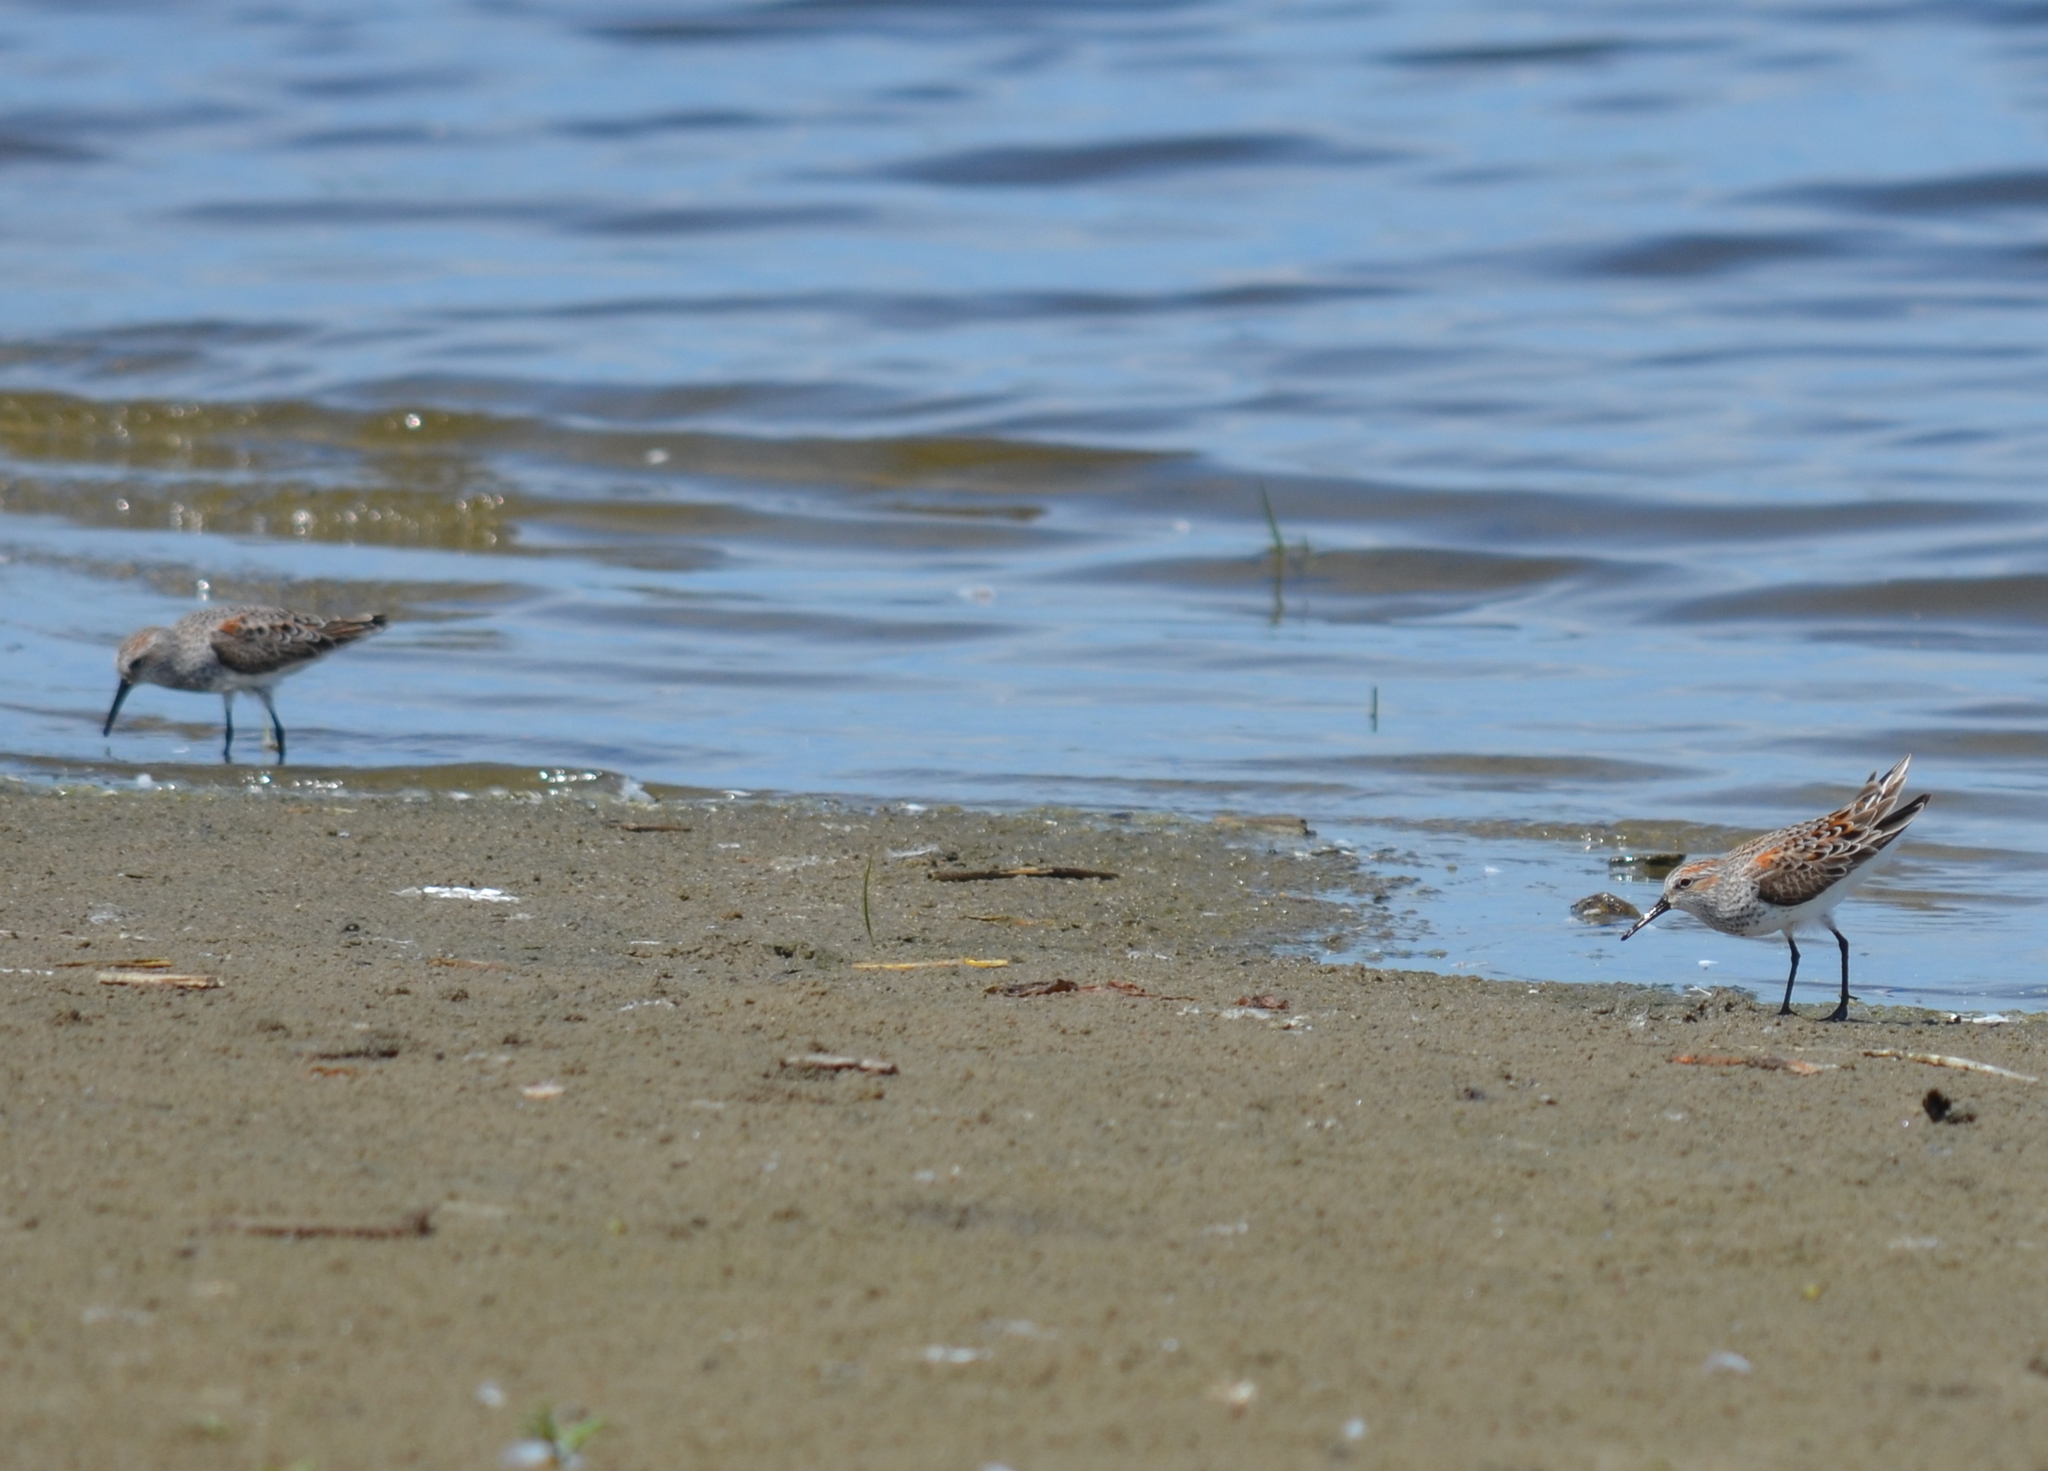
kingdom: Animalia
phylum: Chordata
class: Aves
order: Charadriiformes
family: Scolopacidae
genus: Calidris
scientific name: Calidris mauri
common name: Western sandpiper
